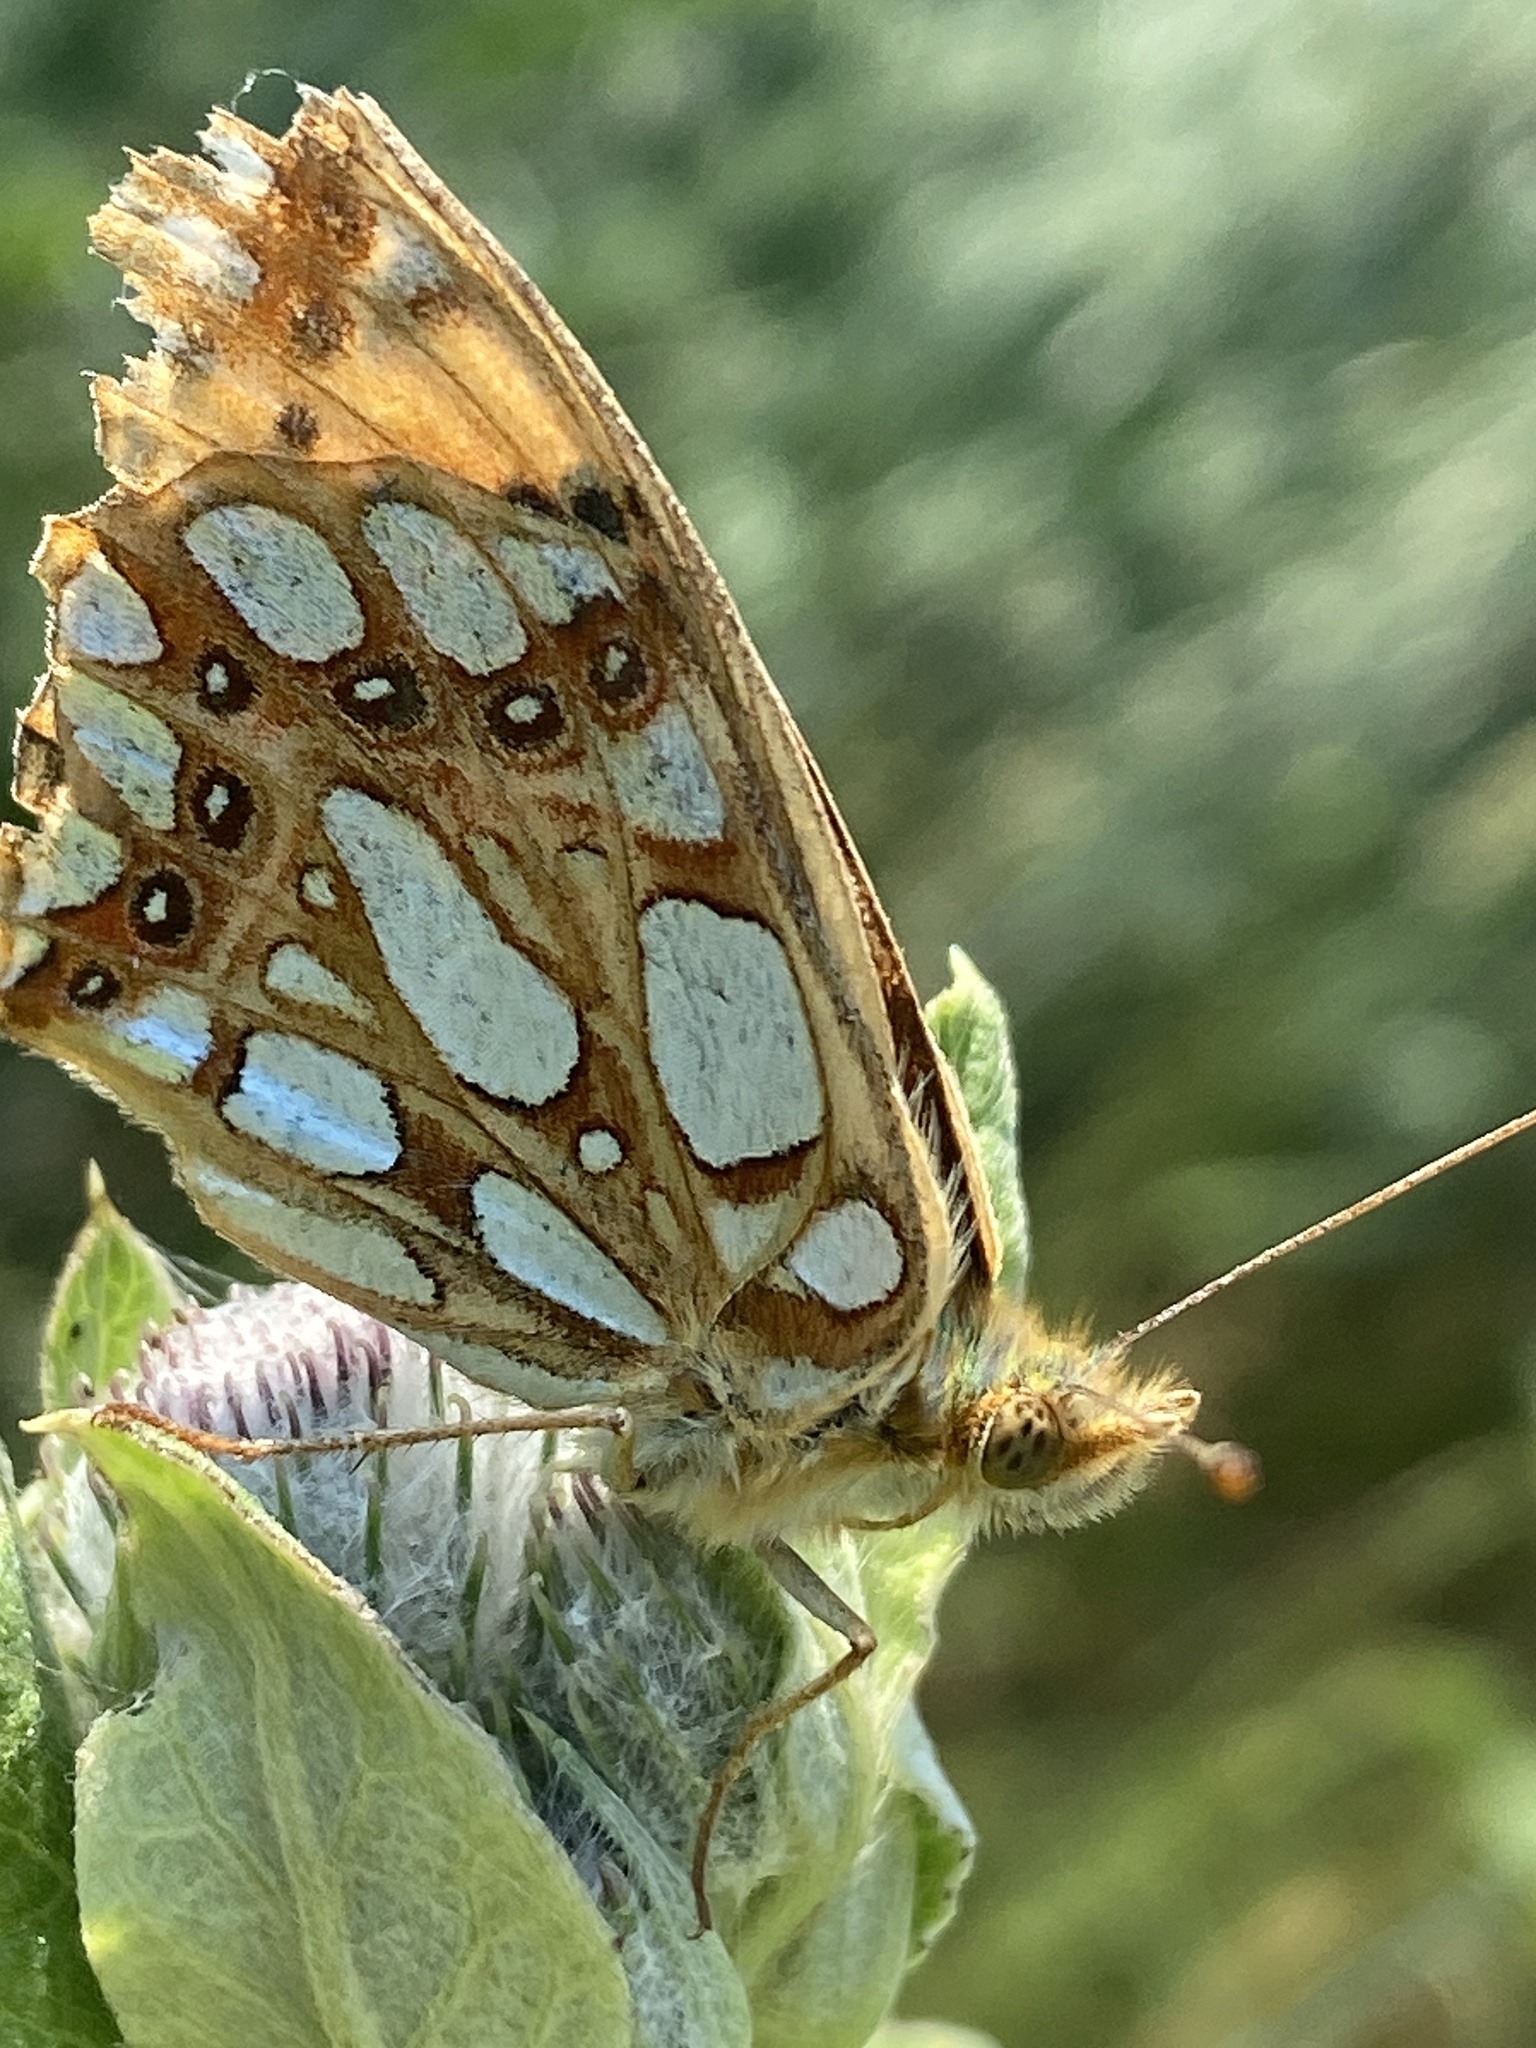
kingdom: Animalia
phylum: Arthropoda
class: Insecta
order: Lepidoptera
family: Nymphalidae
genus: Issoria
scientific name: Issoria lathonia
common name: Queen of spain fritillary
